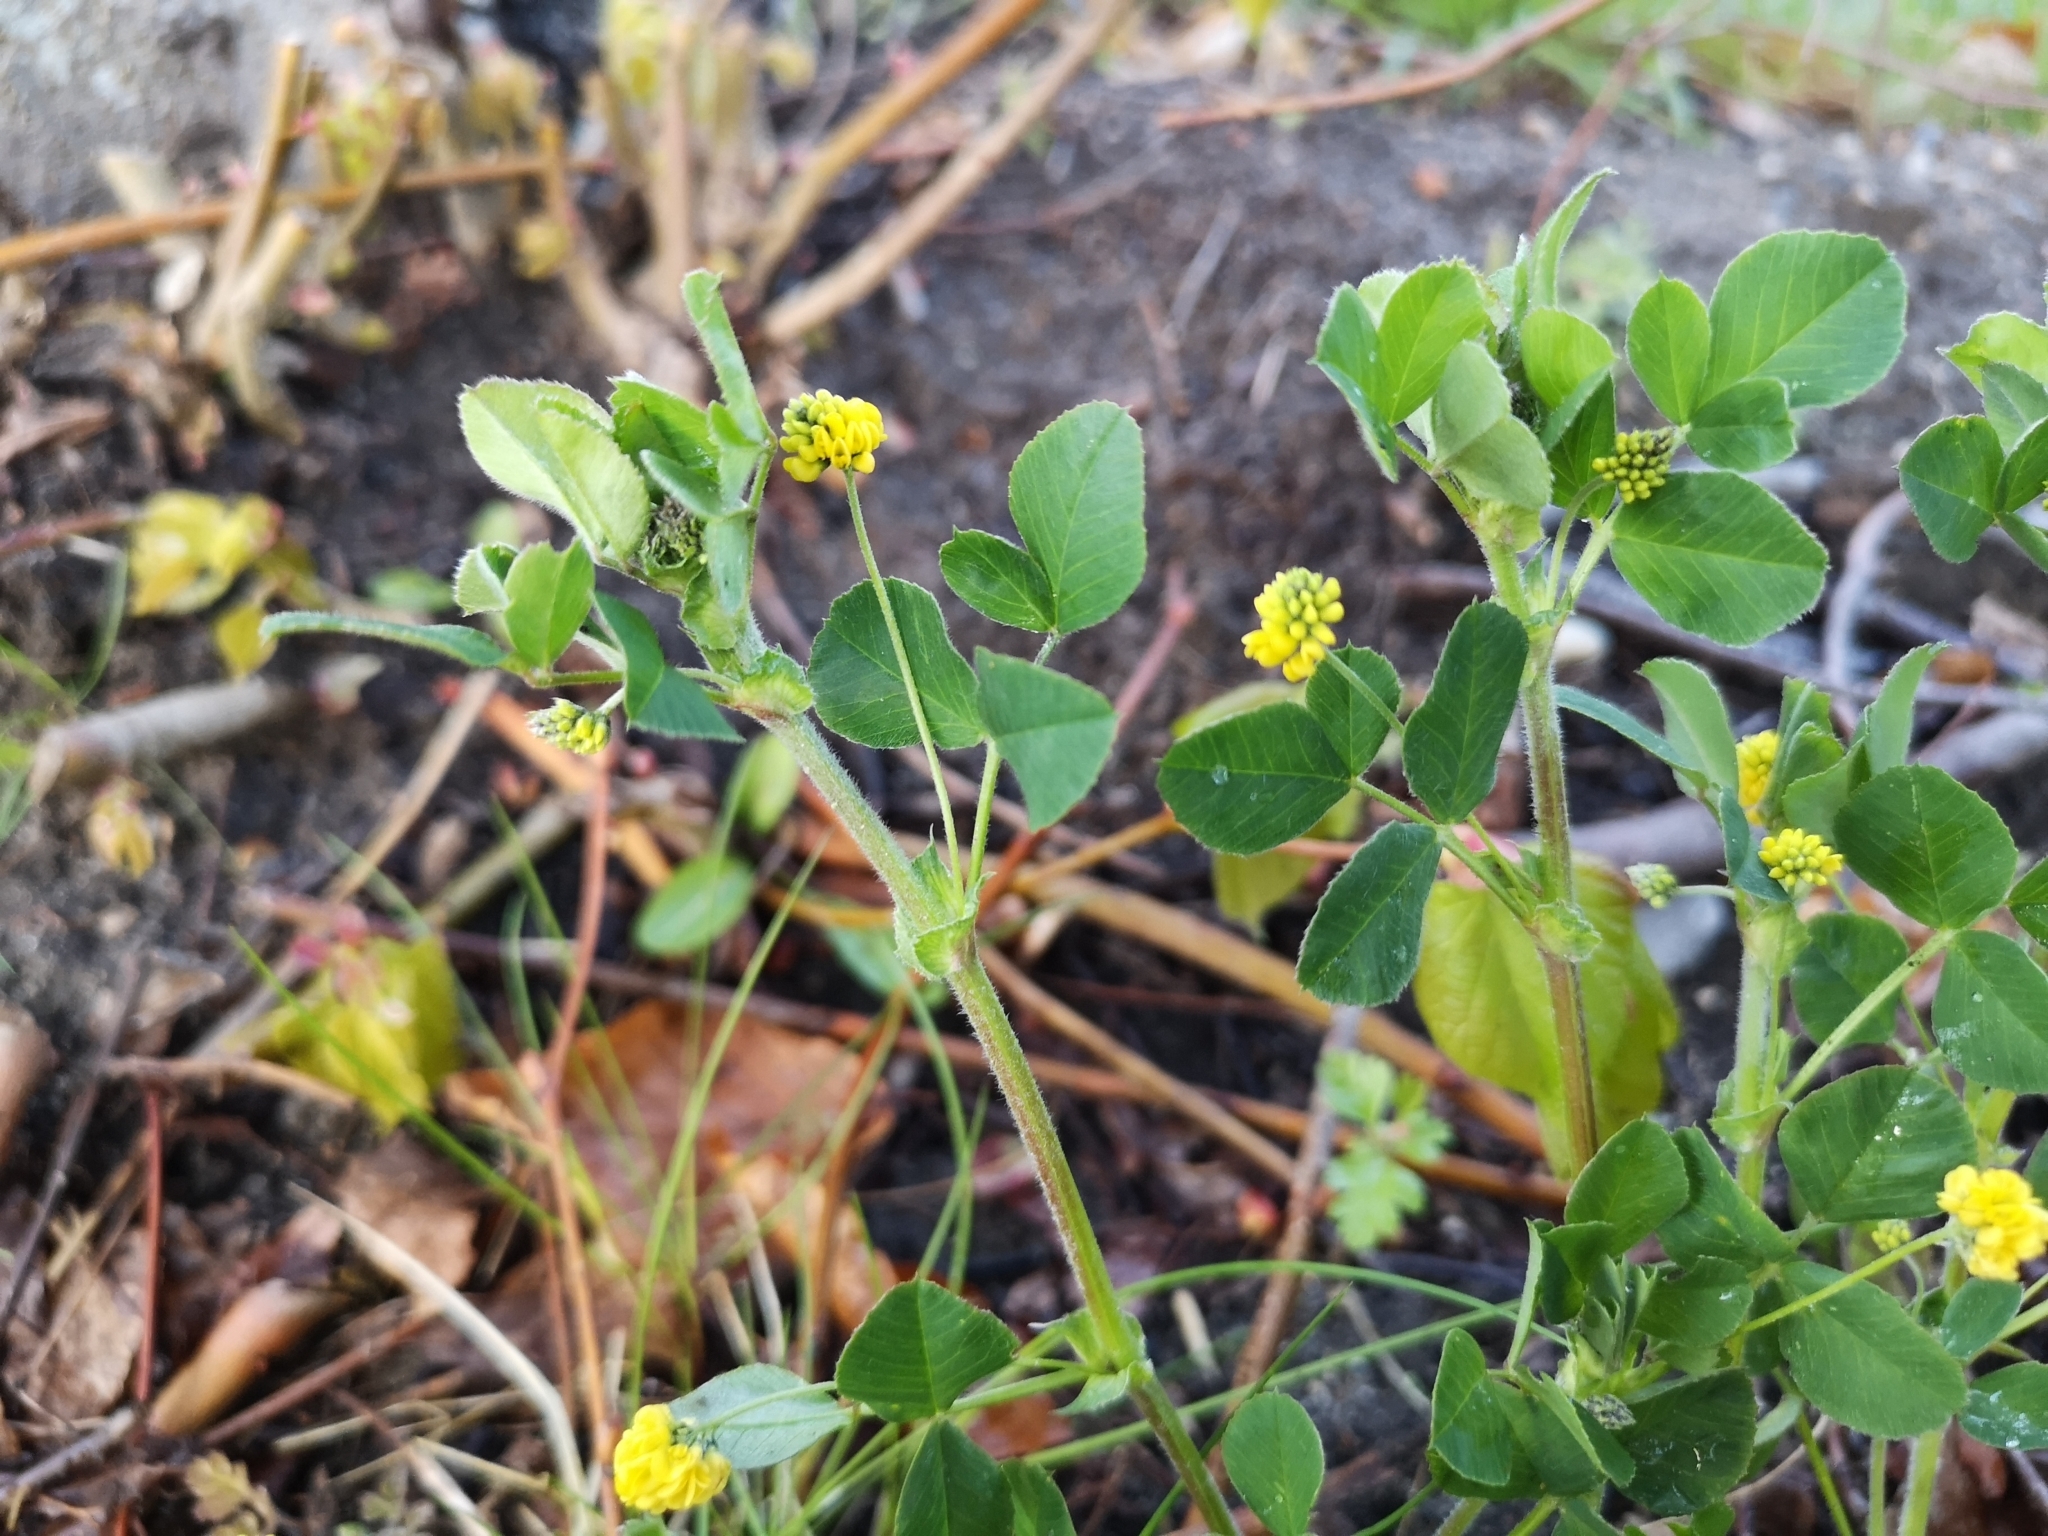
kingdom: Plantae
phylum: Tracheophyta
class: Magnoliopsida
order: Fabales
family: Fabaceae
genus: Medicago
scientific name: Medicago lupulina
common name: Black medick
